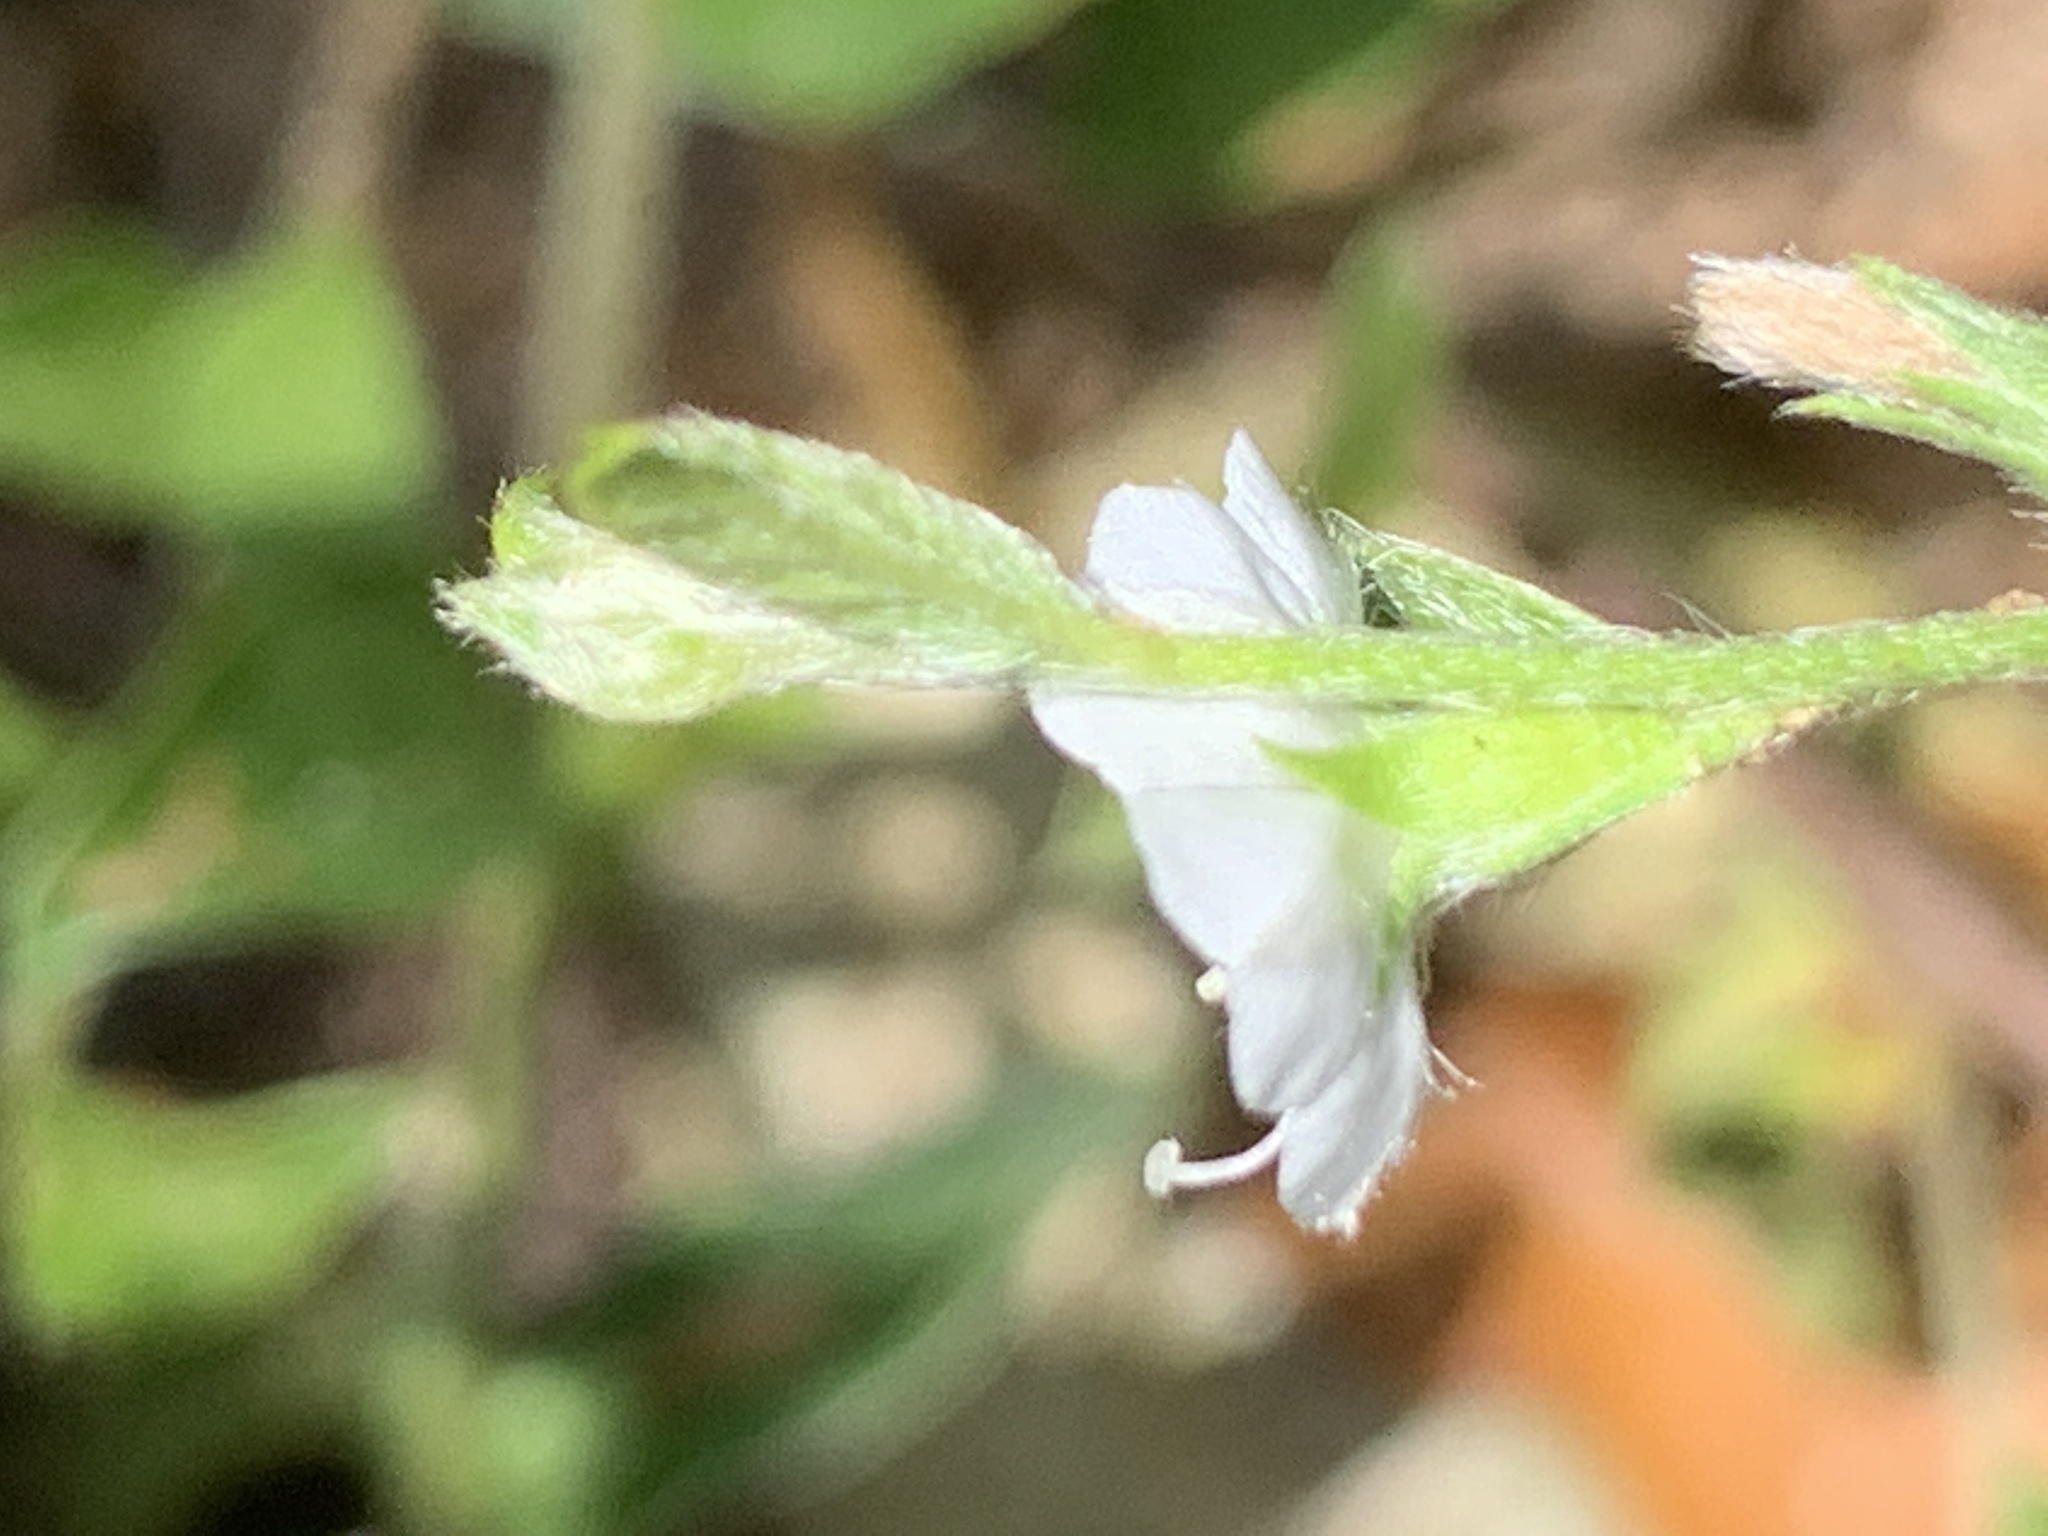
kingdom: Plantae
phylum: Tracheophyta
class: Magnoliopsida
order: Solanales
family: Convolvulaceae
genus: Seddera
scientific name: Seddera capensis
